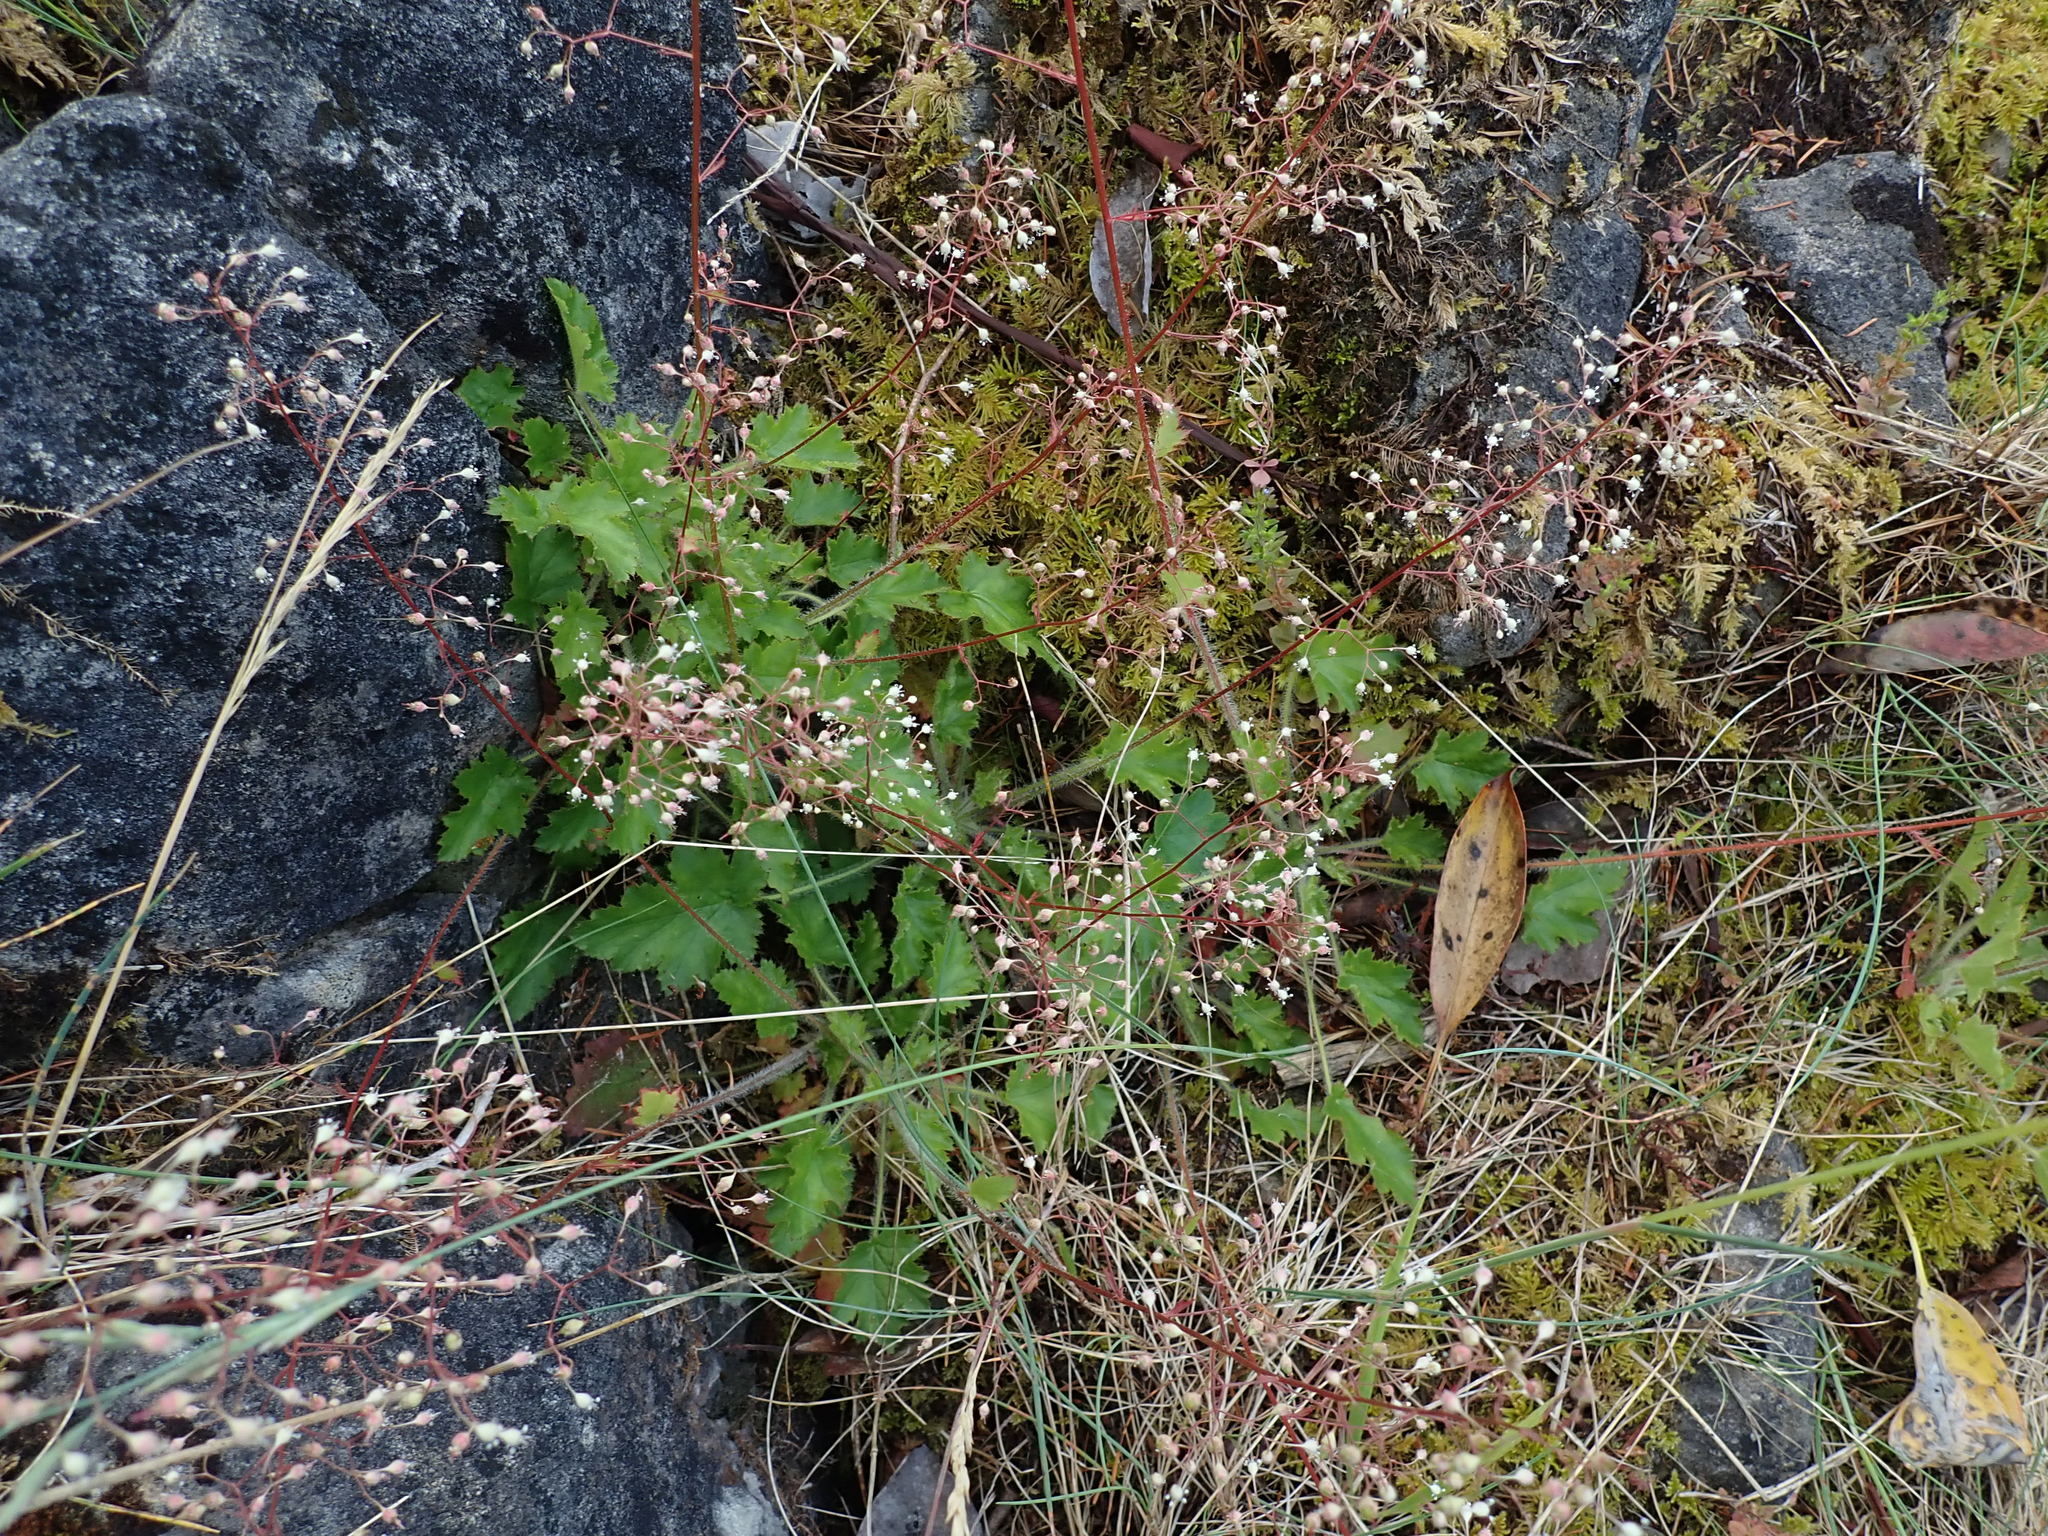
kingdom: Plantae
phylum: Tracheophyta
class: Magnoliopsida
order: Saxifragales
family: Saxifragaceae
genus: Heuchera
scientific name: Heuchera micrantha
